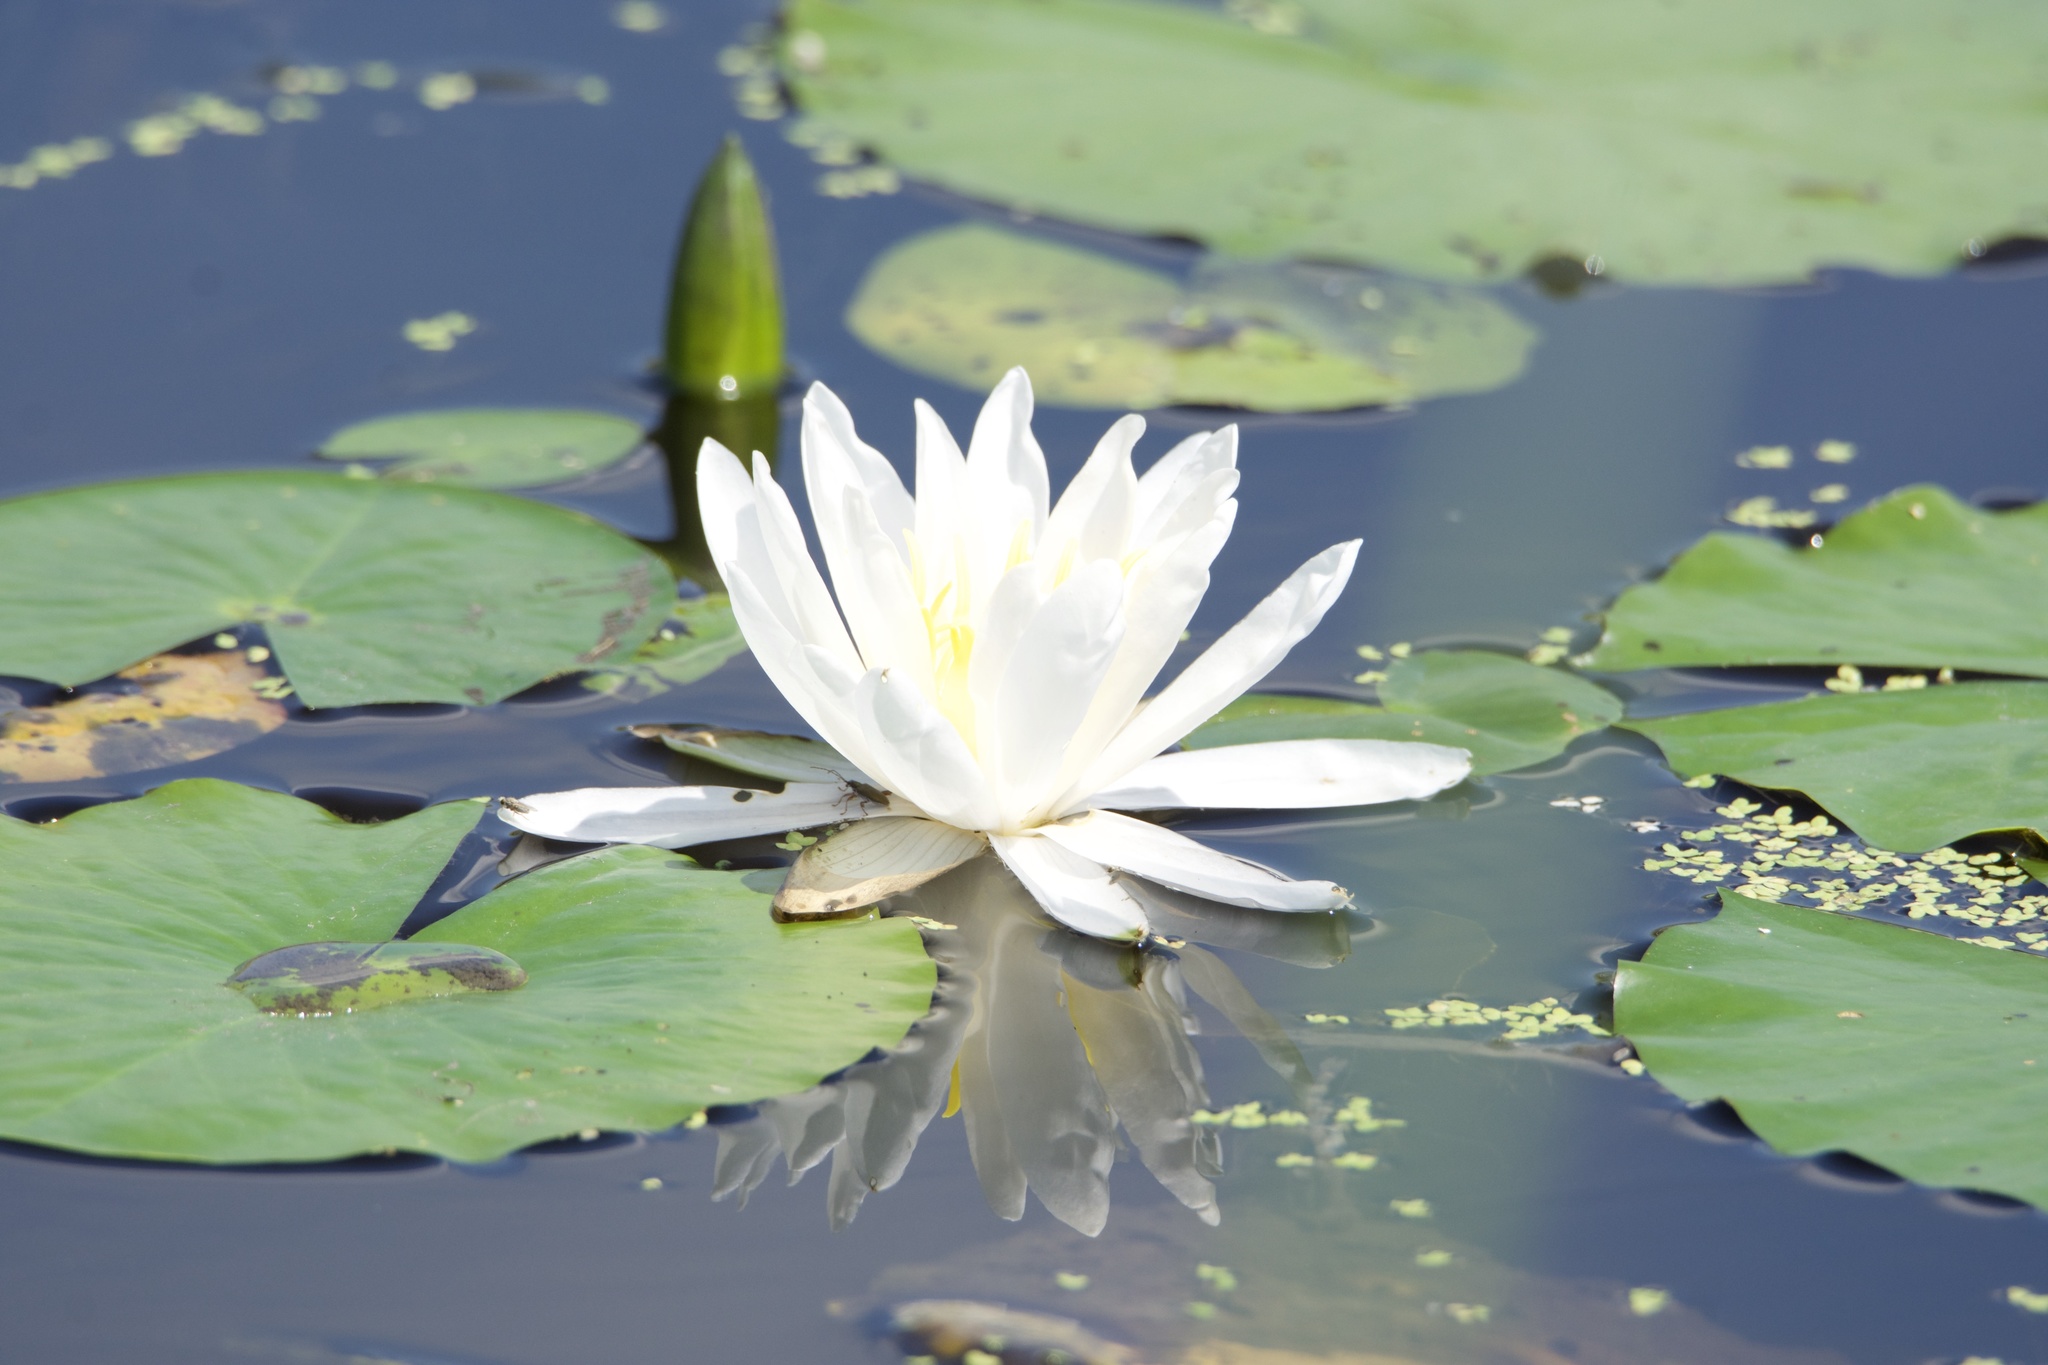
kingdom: Plantae
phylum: Tracheophyta
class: Magnoliopsida
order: Nymphaeales
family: Nymphaeaceae
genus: Nymphaea
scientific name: Nymphaea odorata
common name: Fragrant water-lily
